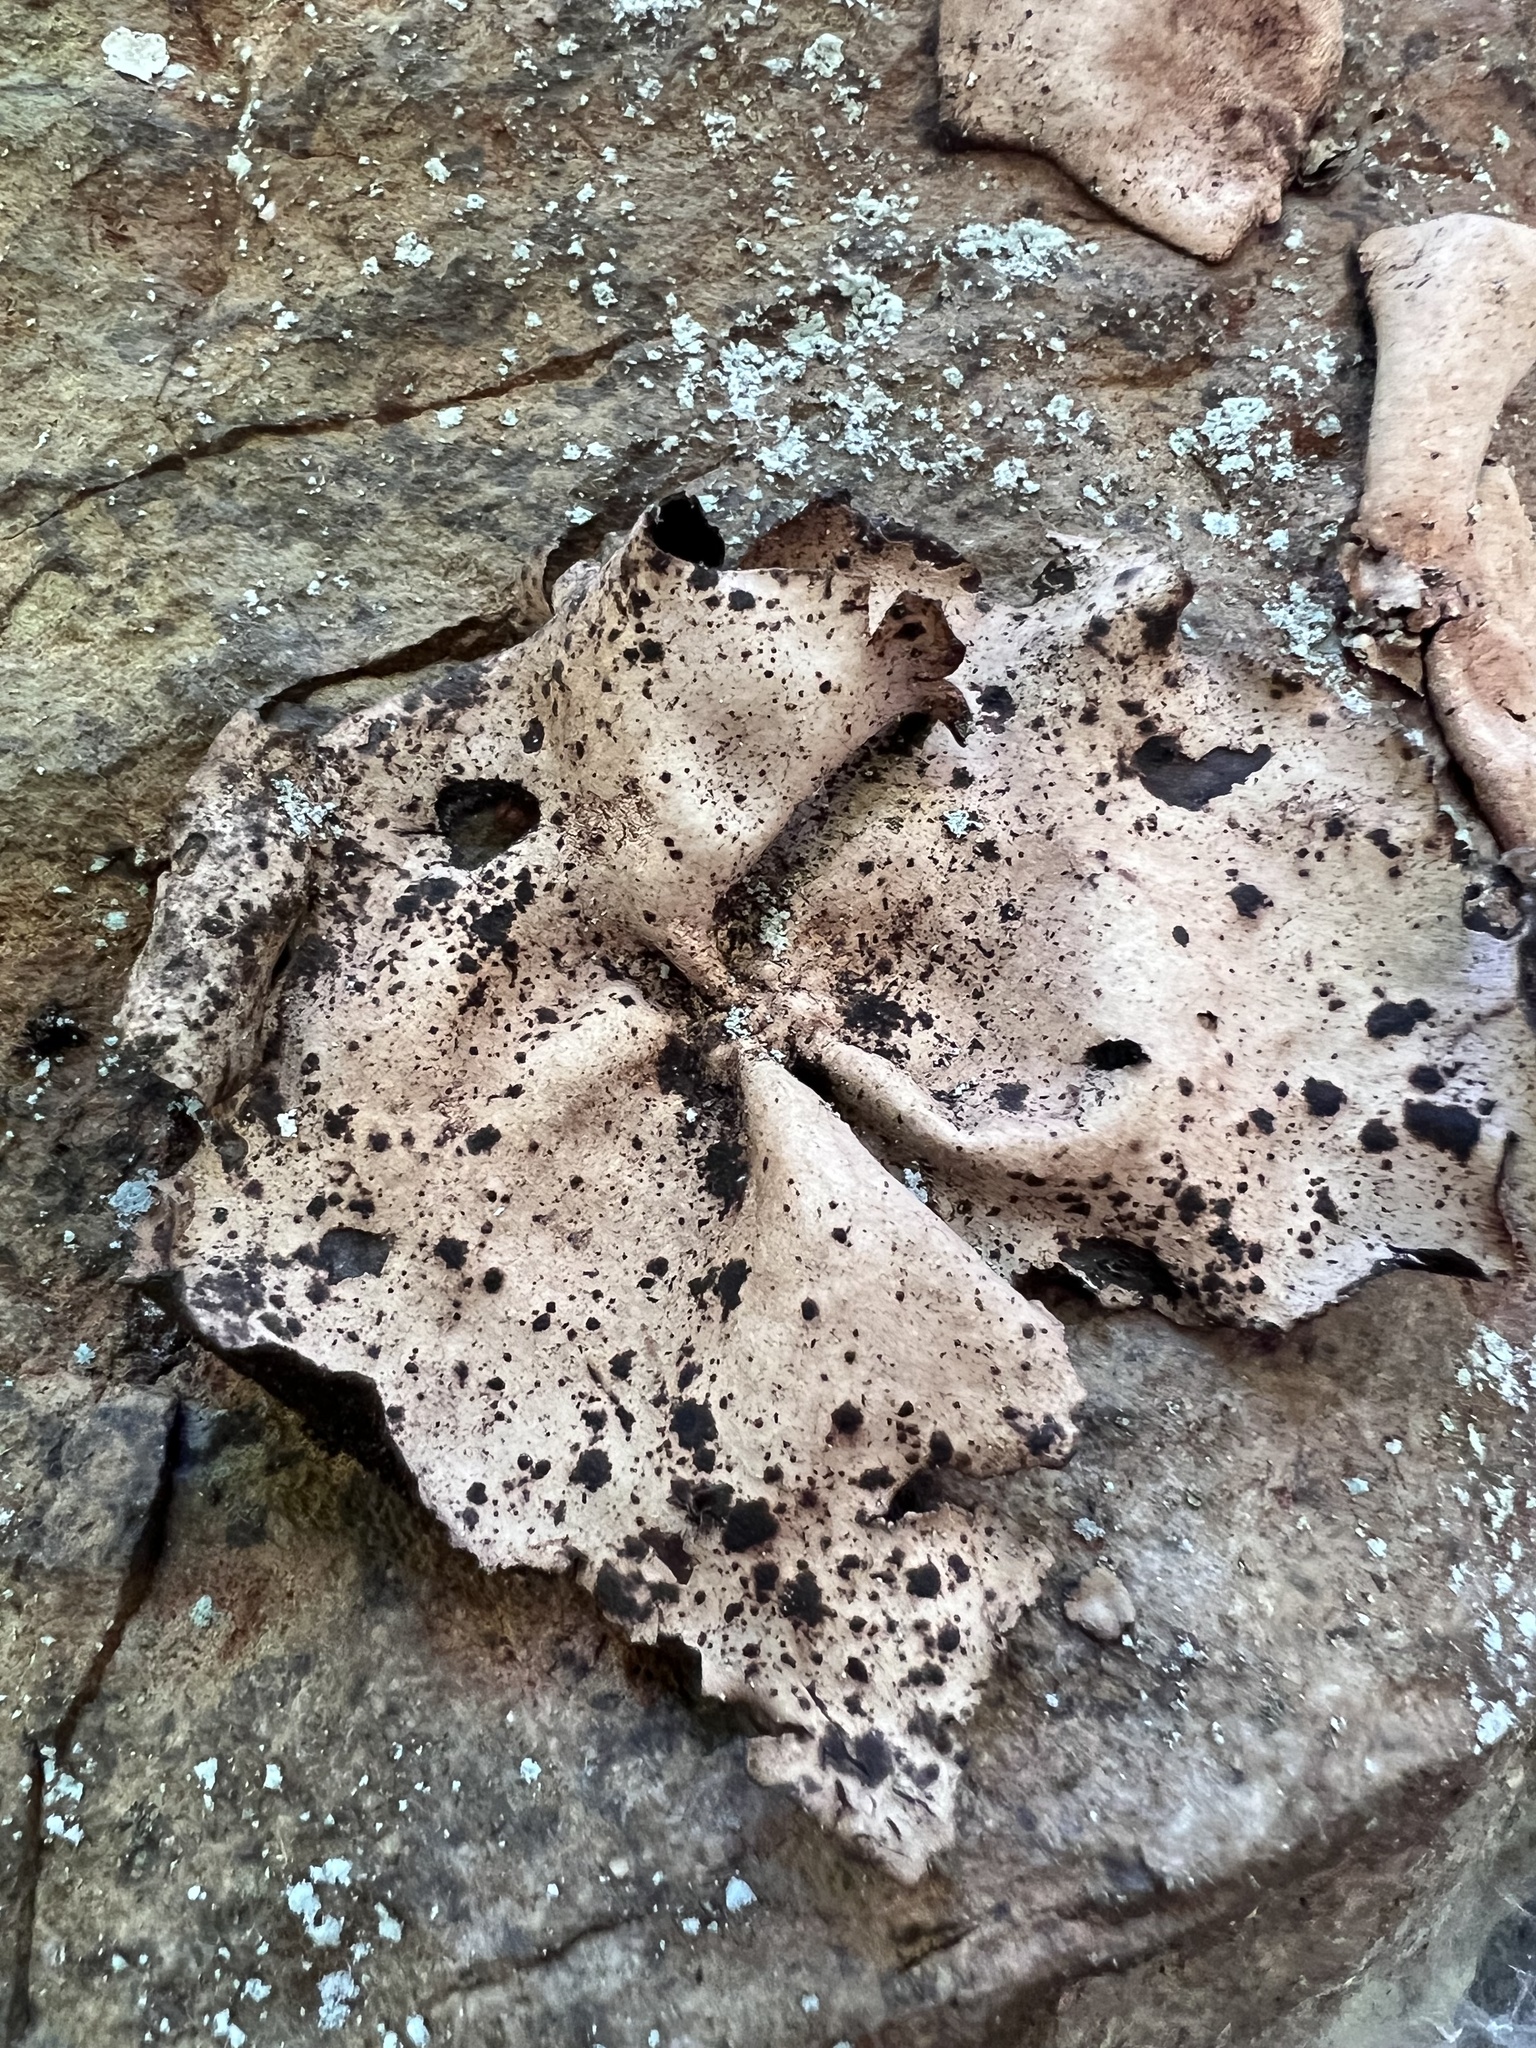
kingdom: Fungi
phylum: Ascomycota
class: Lecanoromycetes
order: Umbilicariales
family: Umbilicariaceae
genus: Umbilicaria
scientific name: Umbilicaria mammulata
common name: Smooth rock tripe
